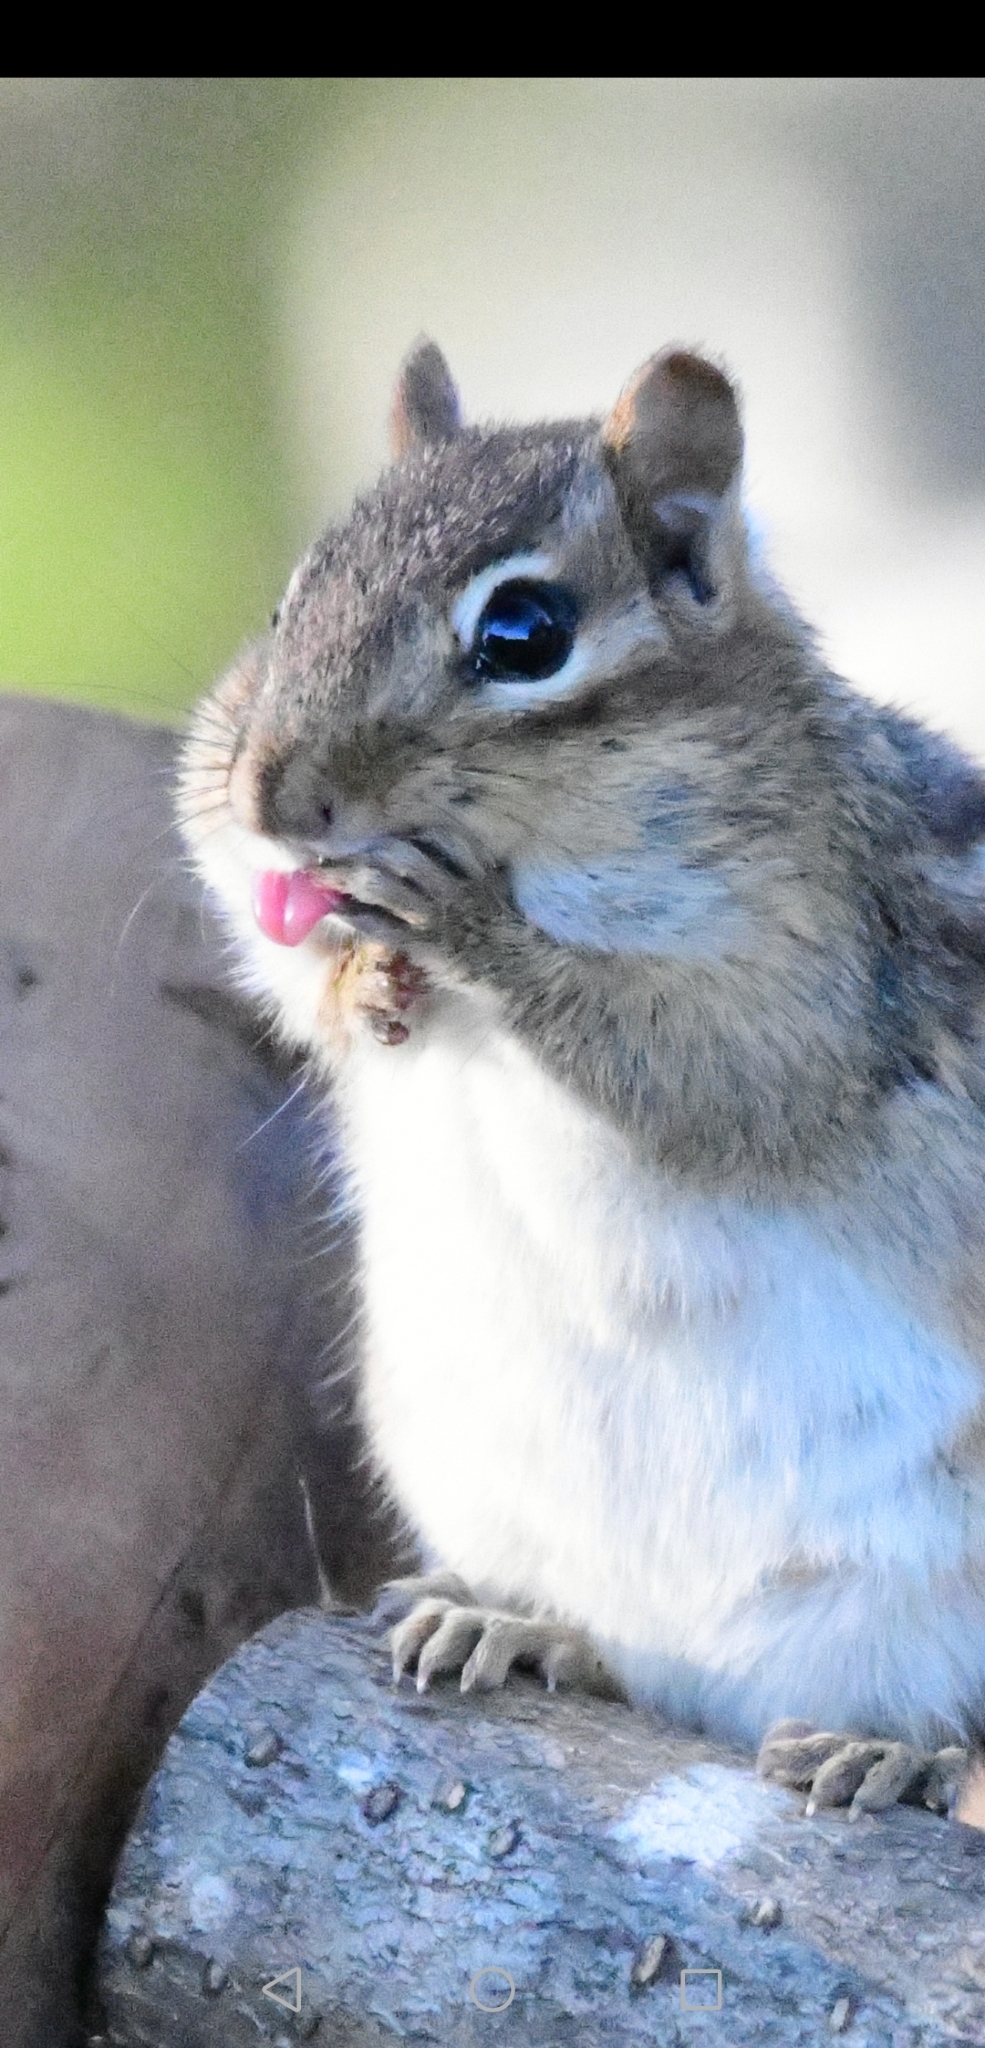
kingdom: Animalia
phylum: Chordata
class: Mammalia
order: Rodentia
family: Sciuridae
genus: Tamias
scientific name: Tamias striatus
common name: Eastern chipmunk
